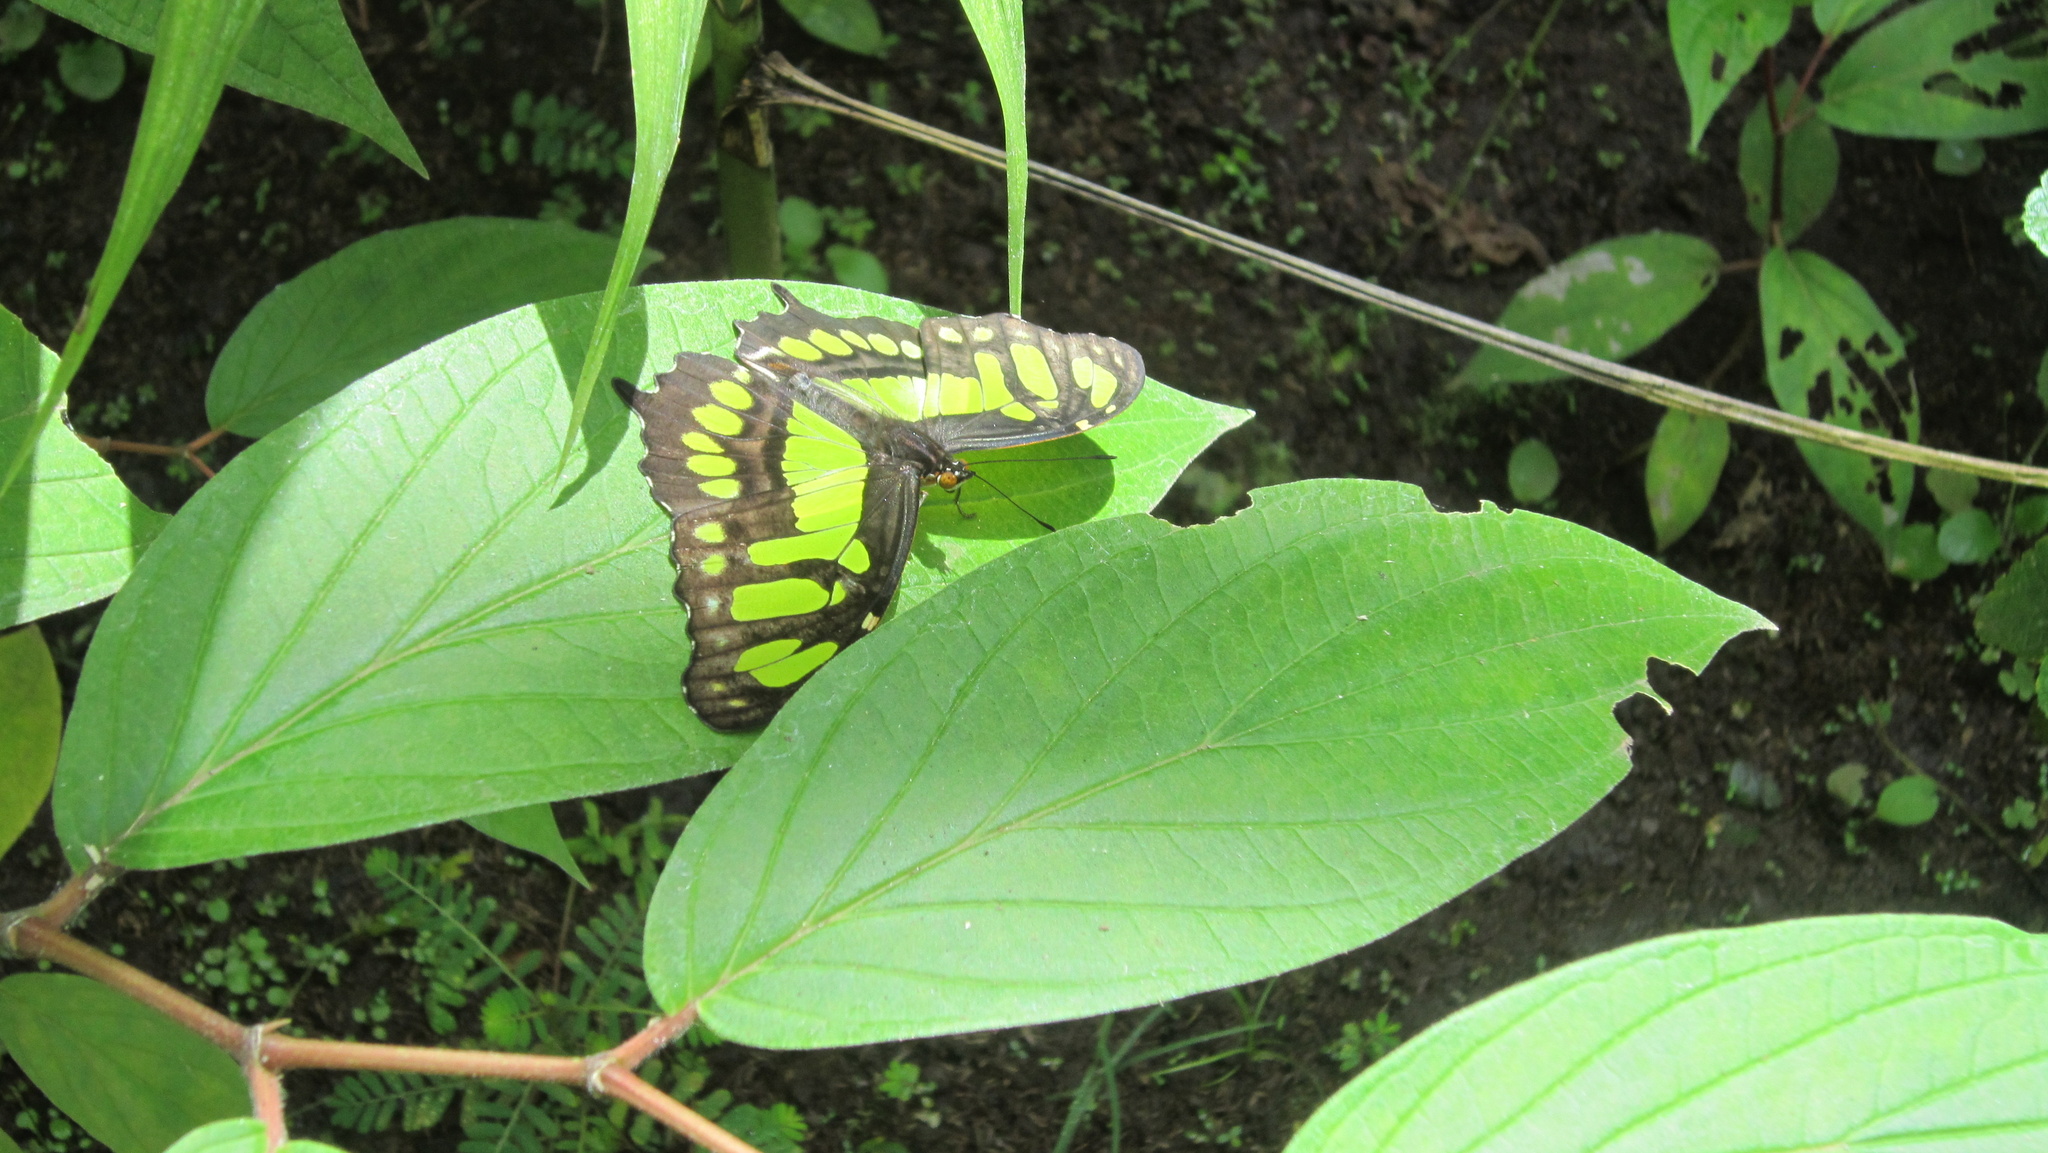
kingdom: Animalia
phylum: Arthropoda
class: Insecta
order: Lepidoptera
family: Nymphalidae
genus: Siproeta
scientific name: Siproeta stelenes
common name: Malachite
